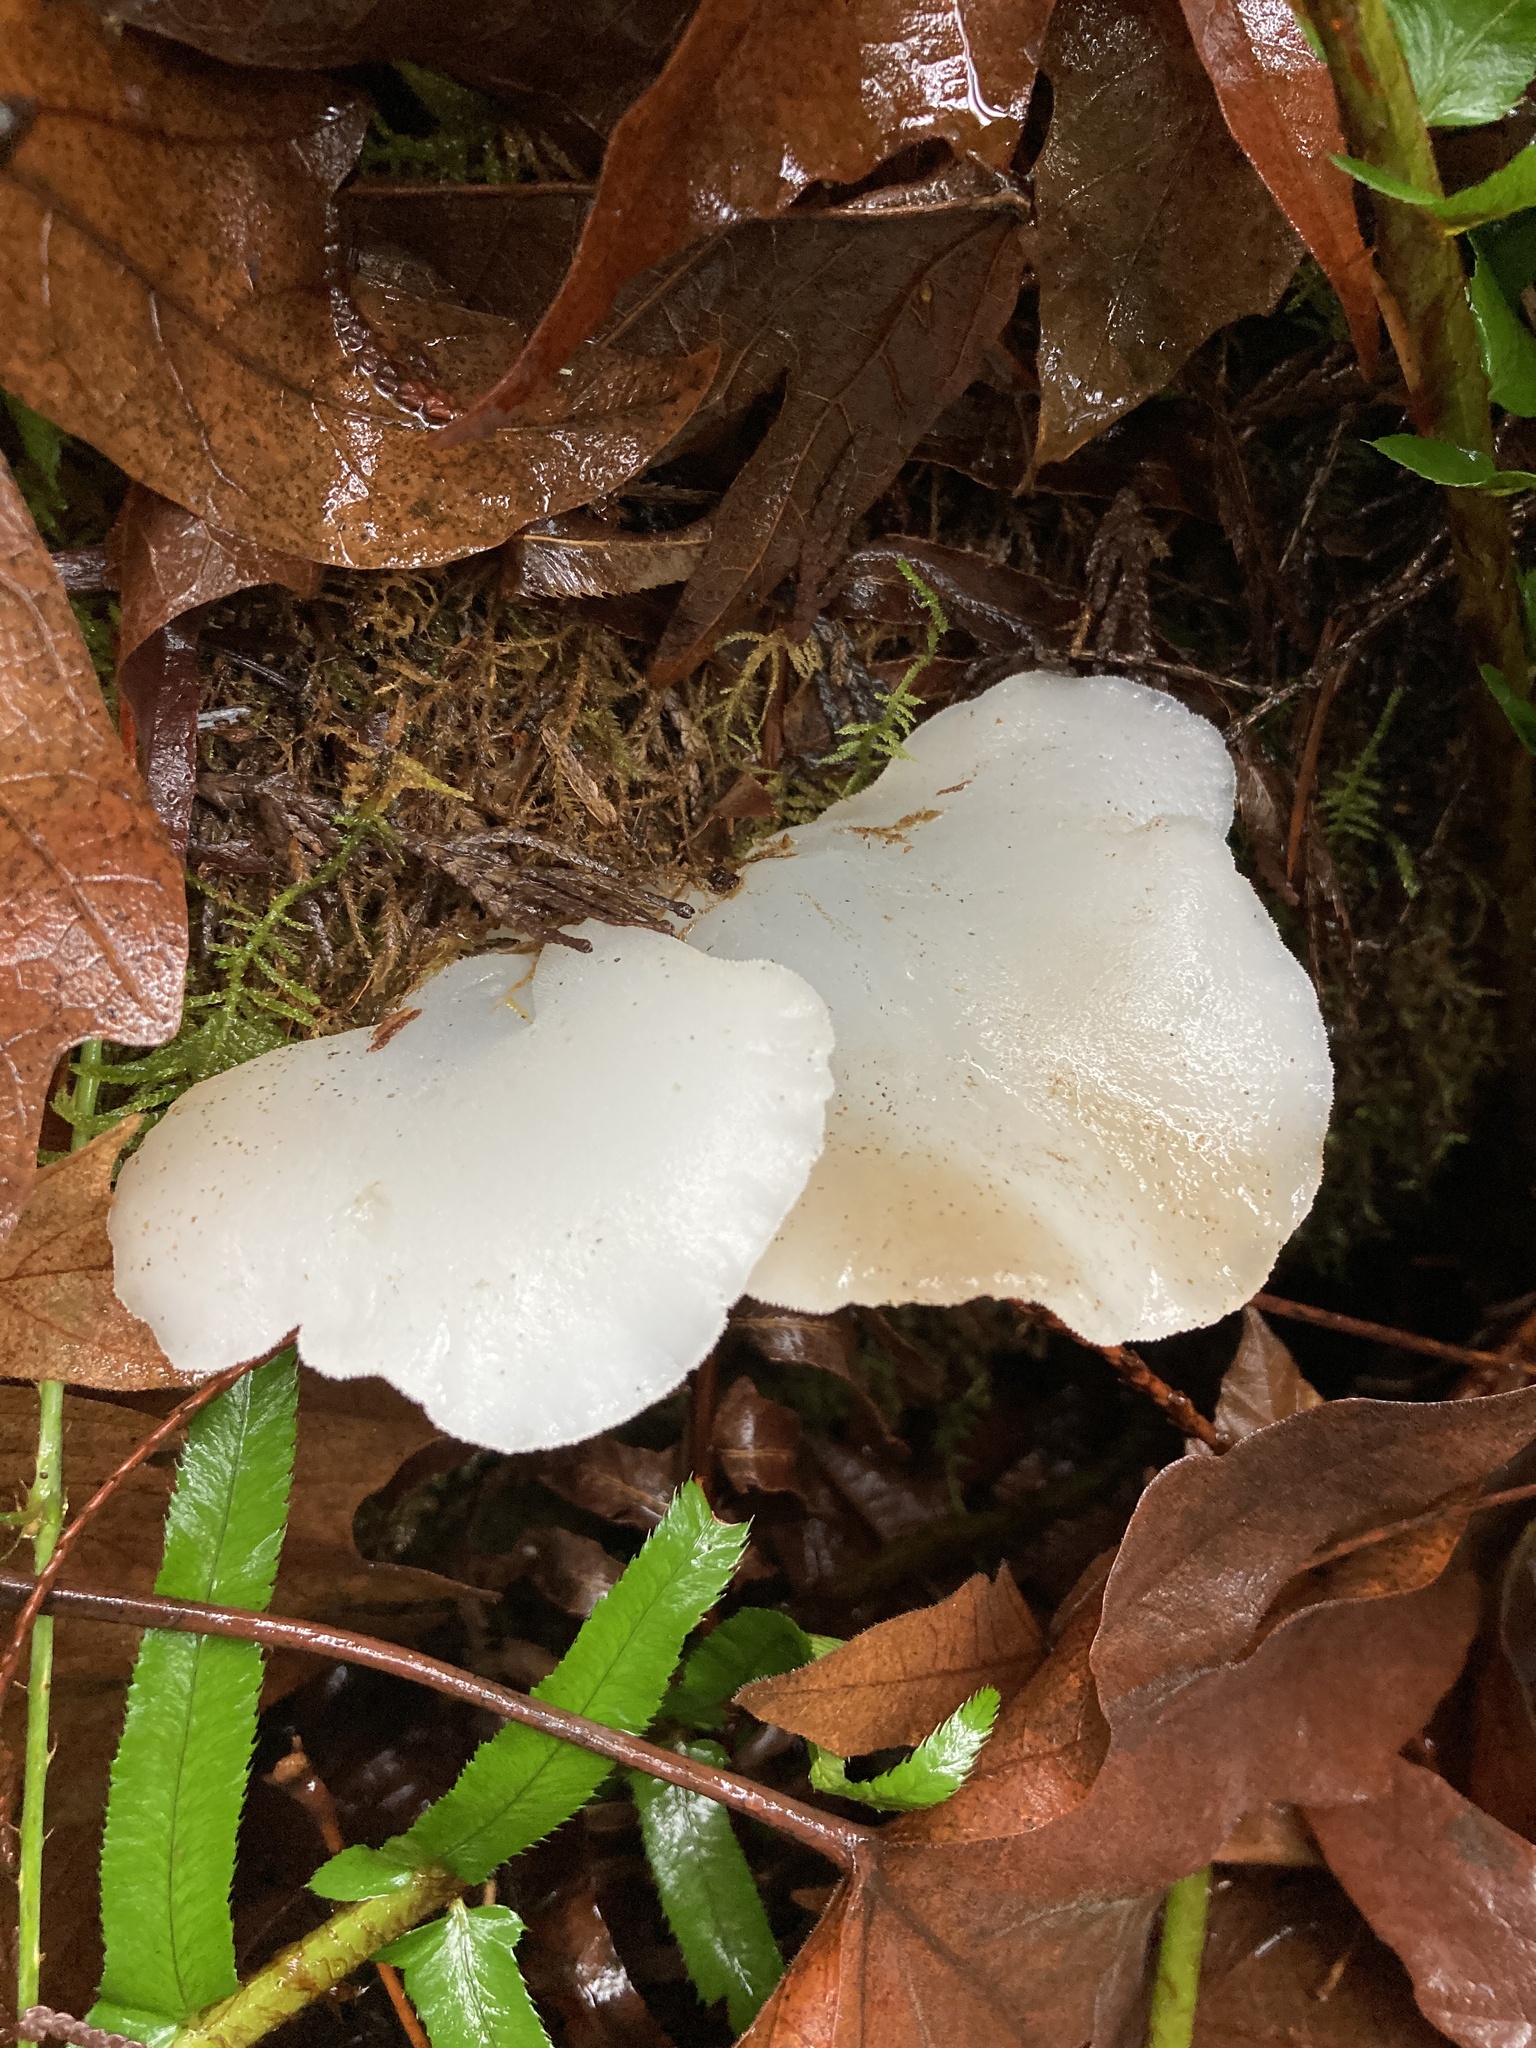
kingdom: Fungi
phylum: Basidiomycota
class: Agaricomycetes
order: Auriculariales
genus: Pseudohydnum
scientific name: Pseudohydnum gelatinosum
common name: Jelly tongue
